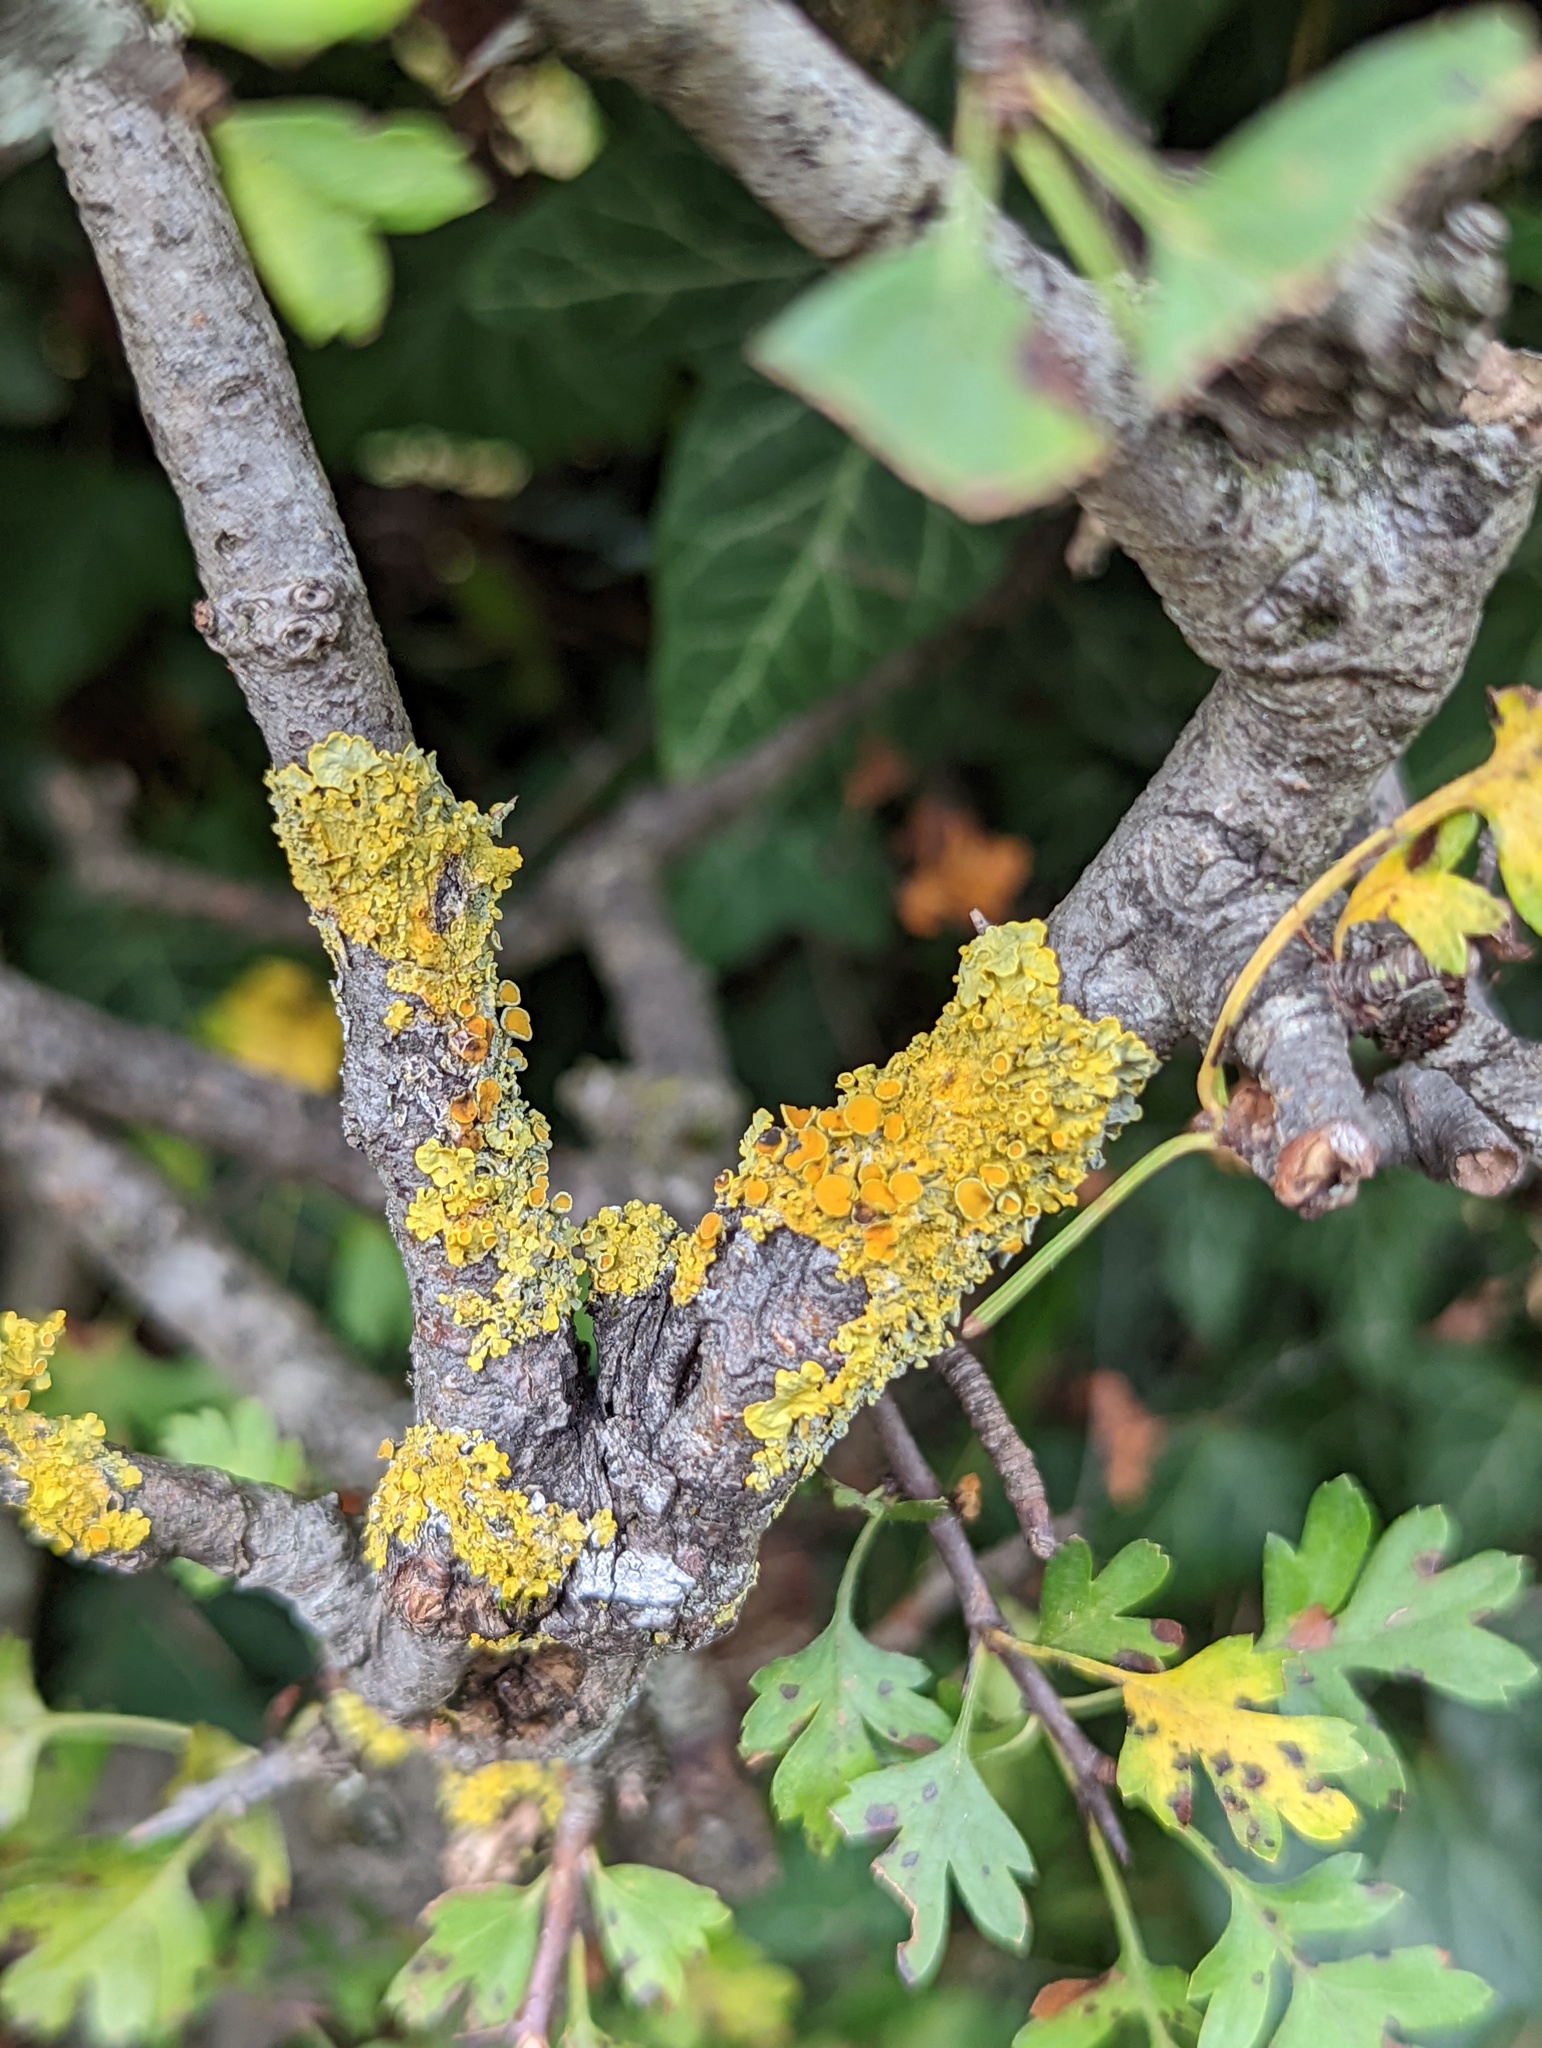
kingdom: Fungi
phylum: Ascomycota
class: Lecanoromycetes
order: Teloschistales
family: Teloschistaceae
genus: Xanthoria
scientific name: Xanthoria parietina
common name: Common orange lichen
